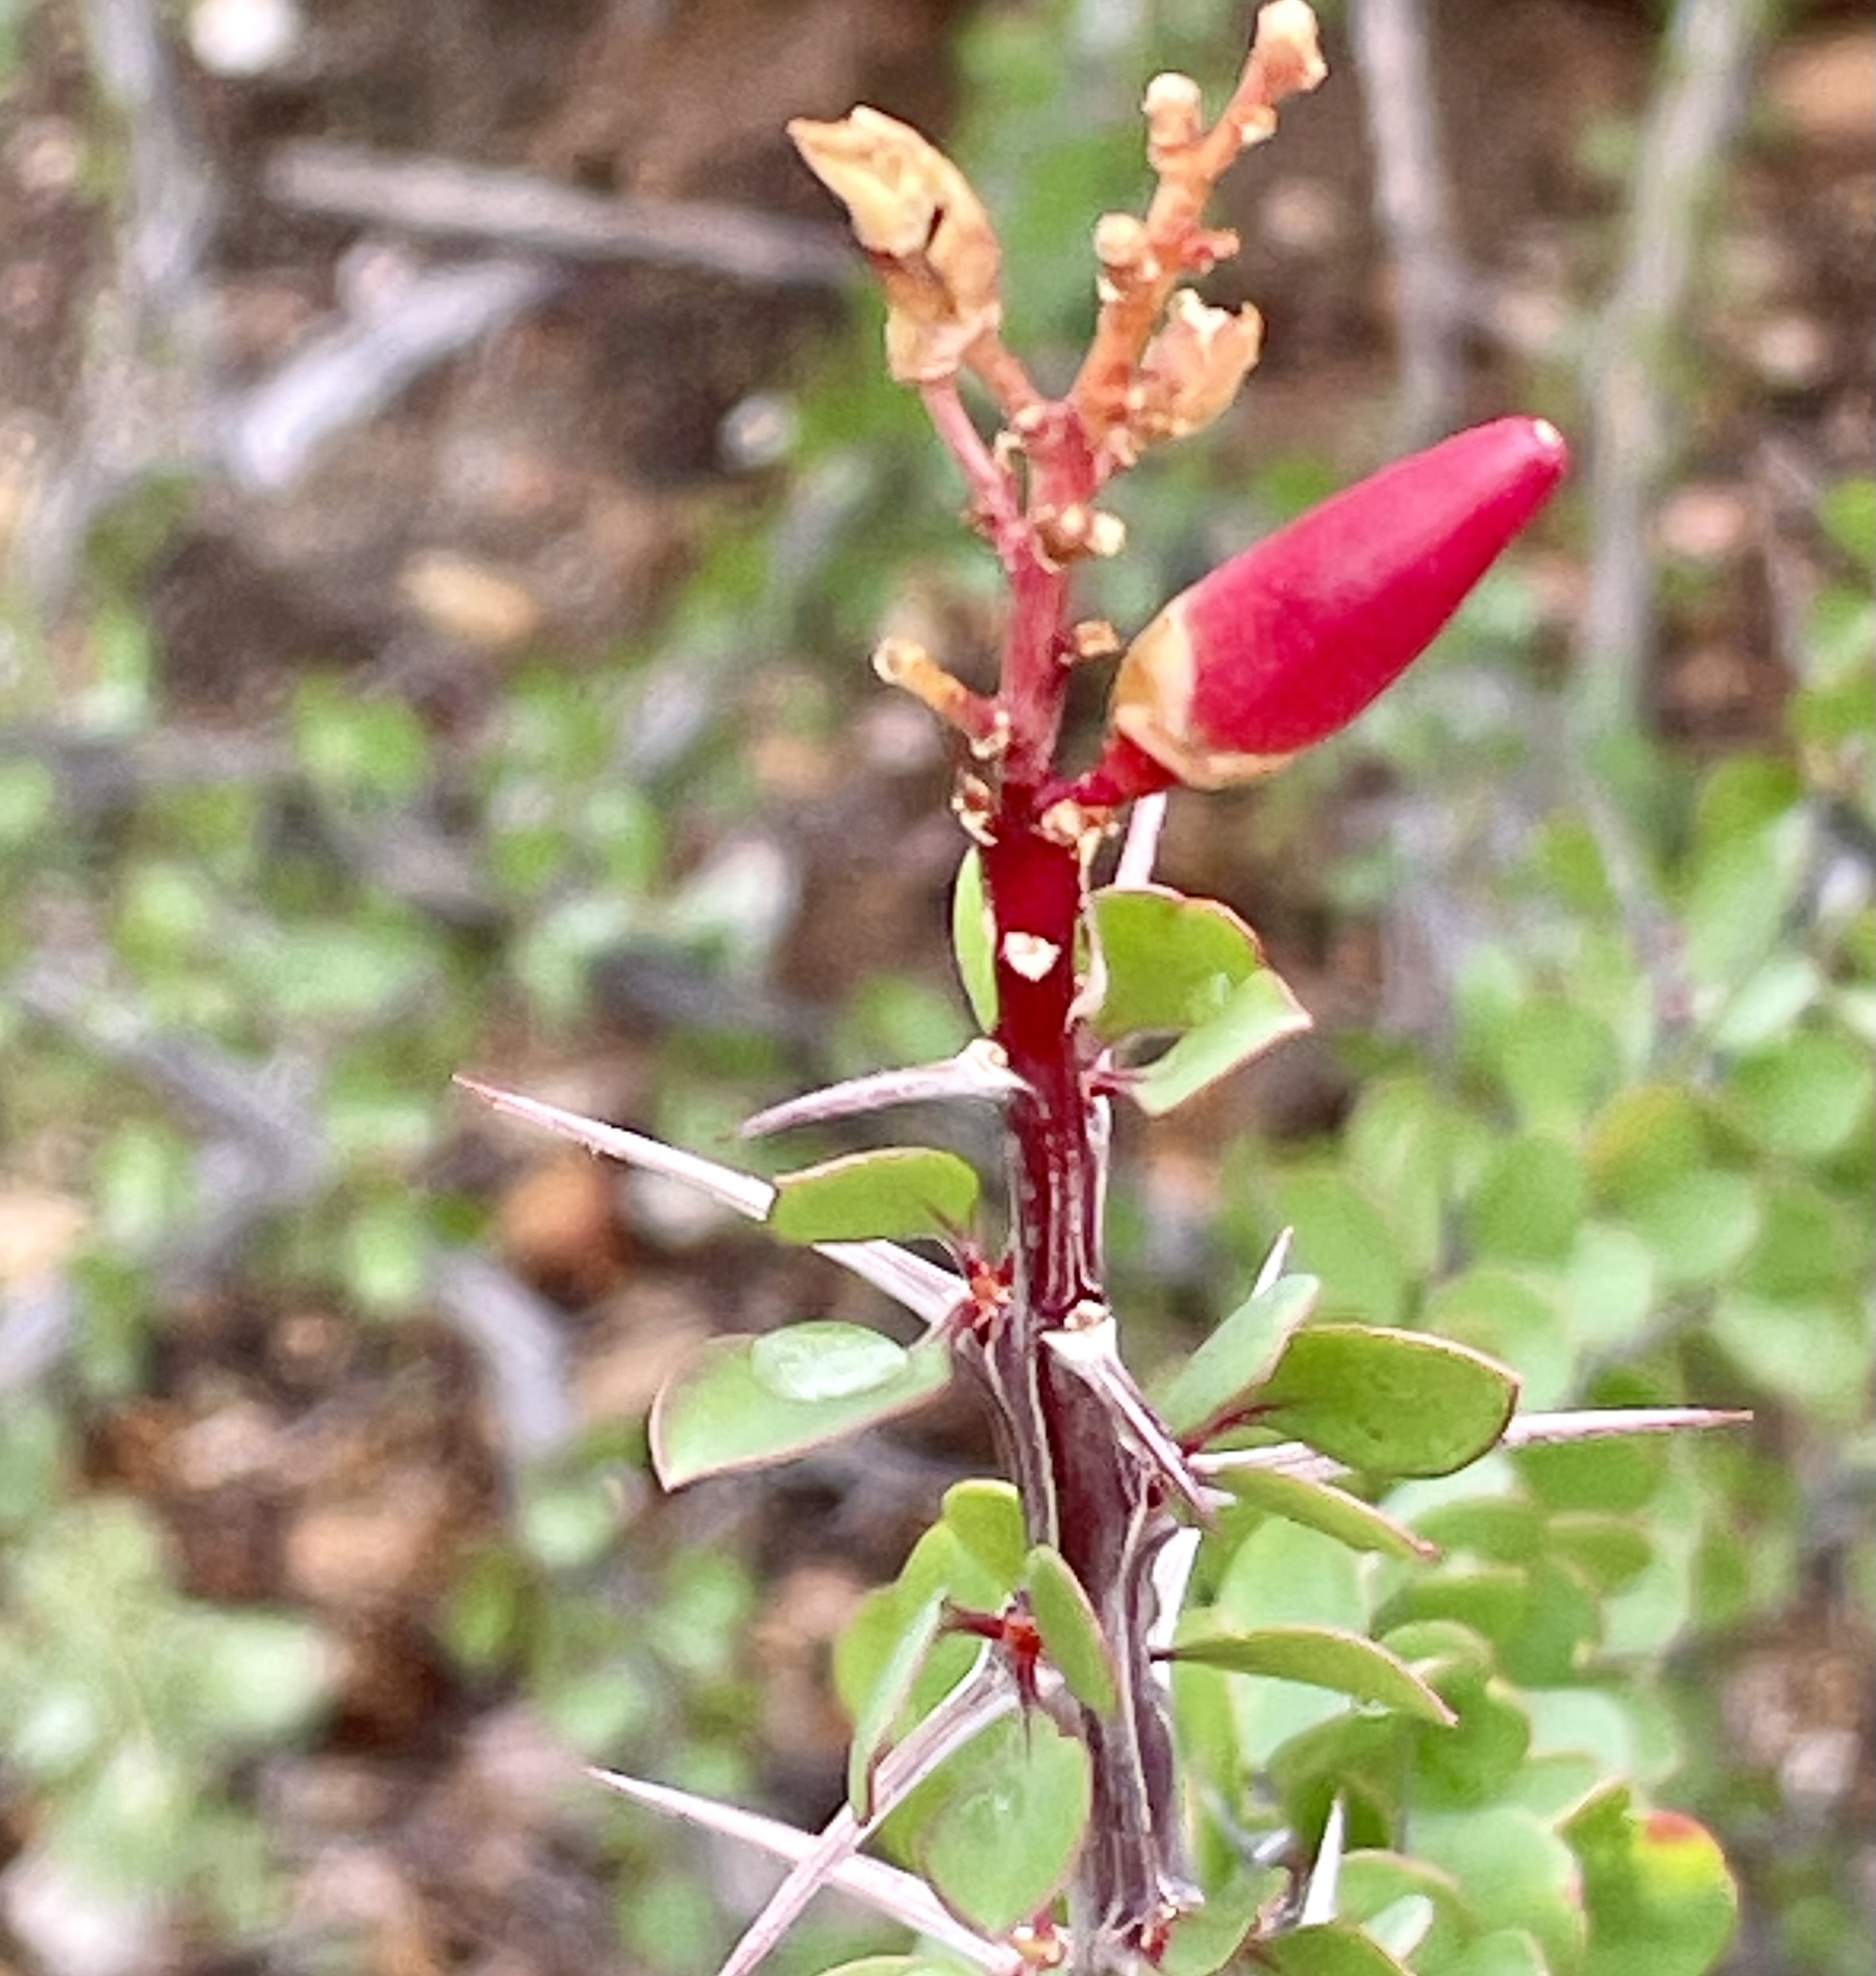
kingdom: Plantae
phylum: Tracheophyta
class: Magnoliopsida
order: Ericales
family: Fouquieriaceae
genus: Fouquieria
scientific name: Fouquieria diguetii
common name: Adam's tree
